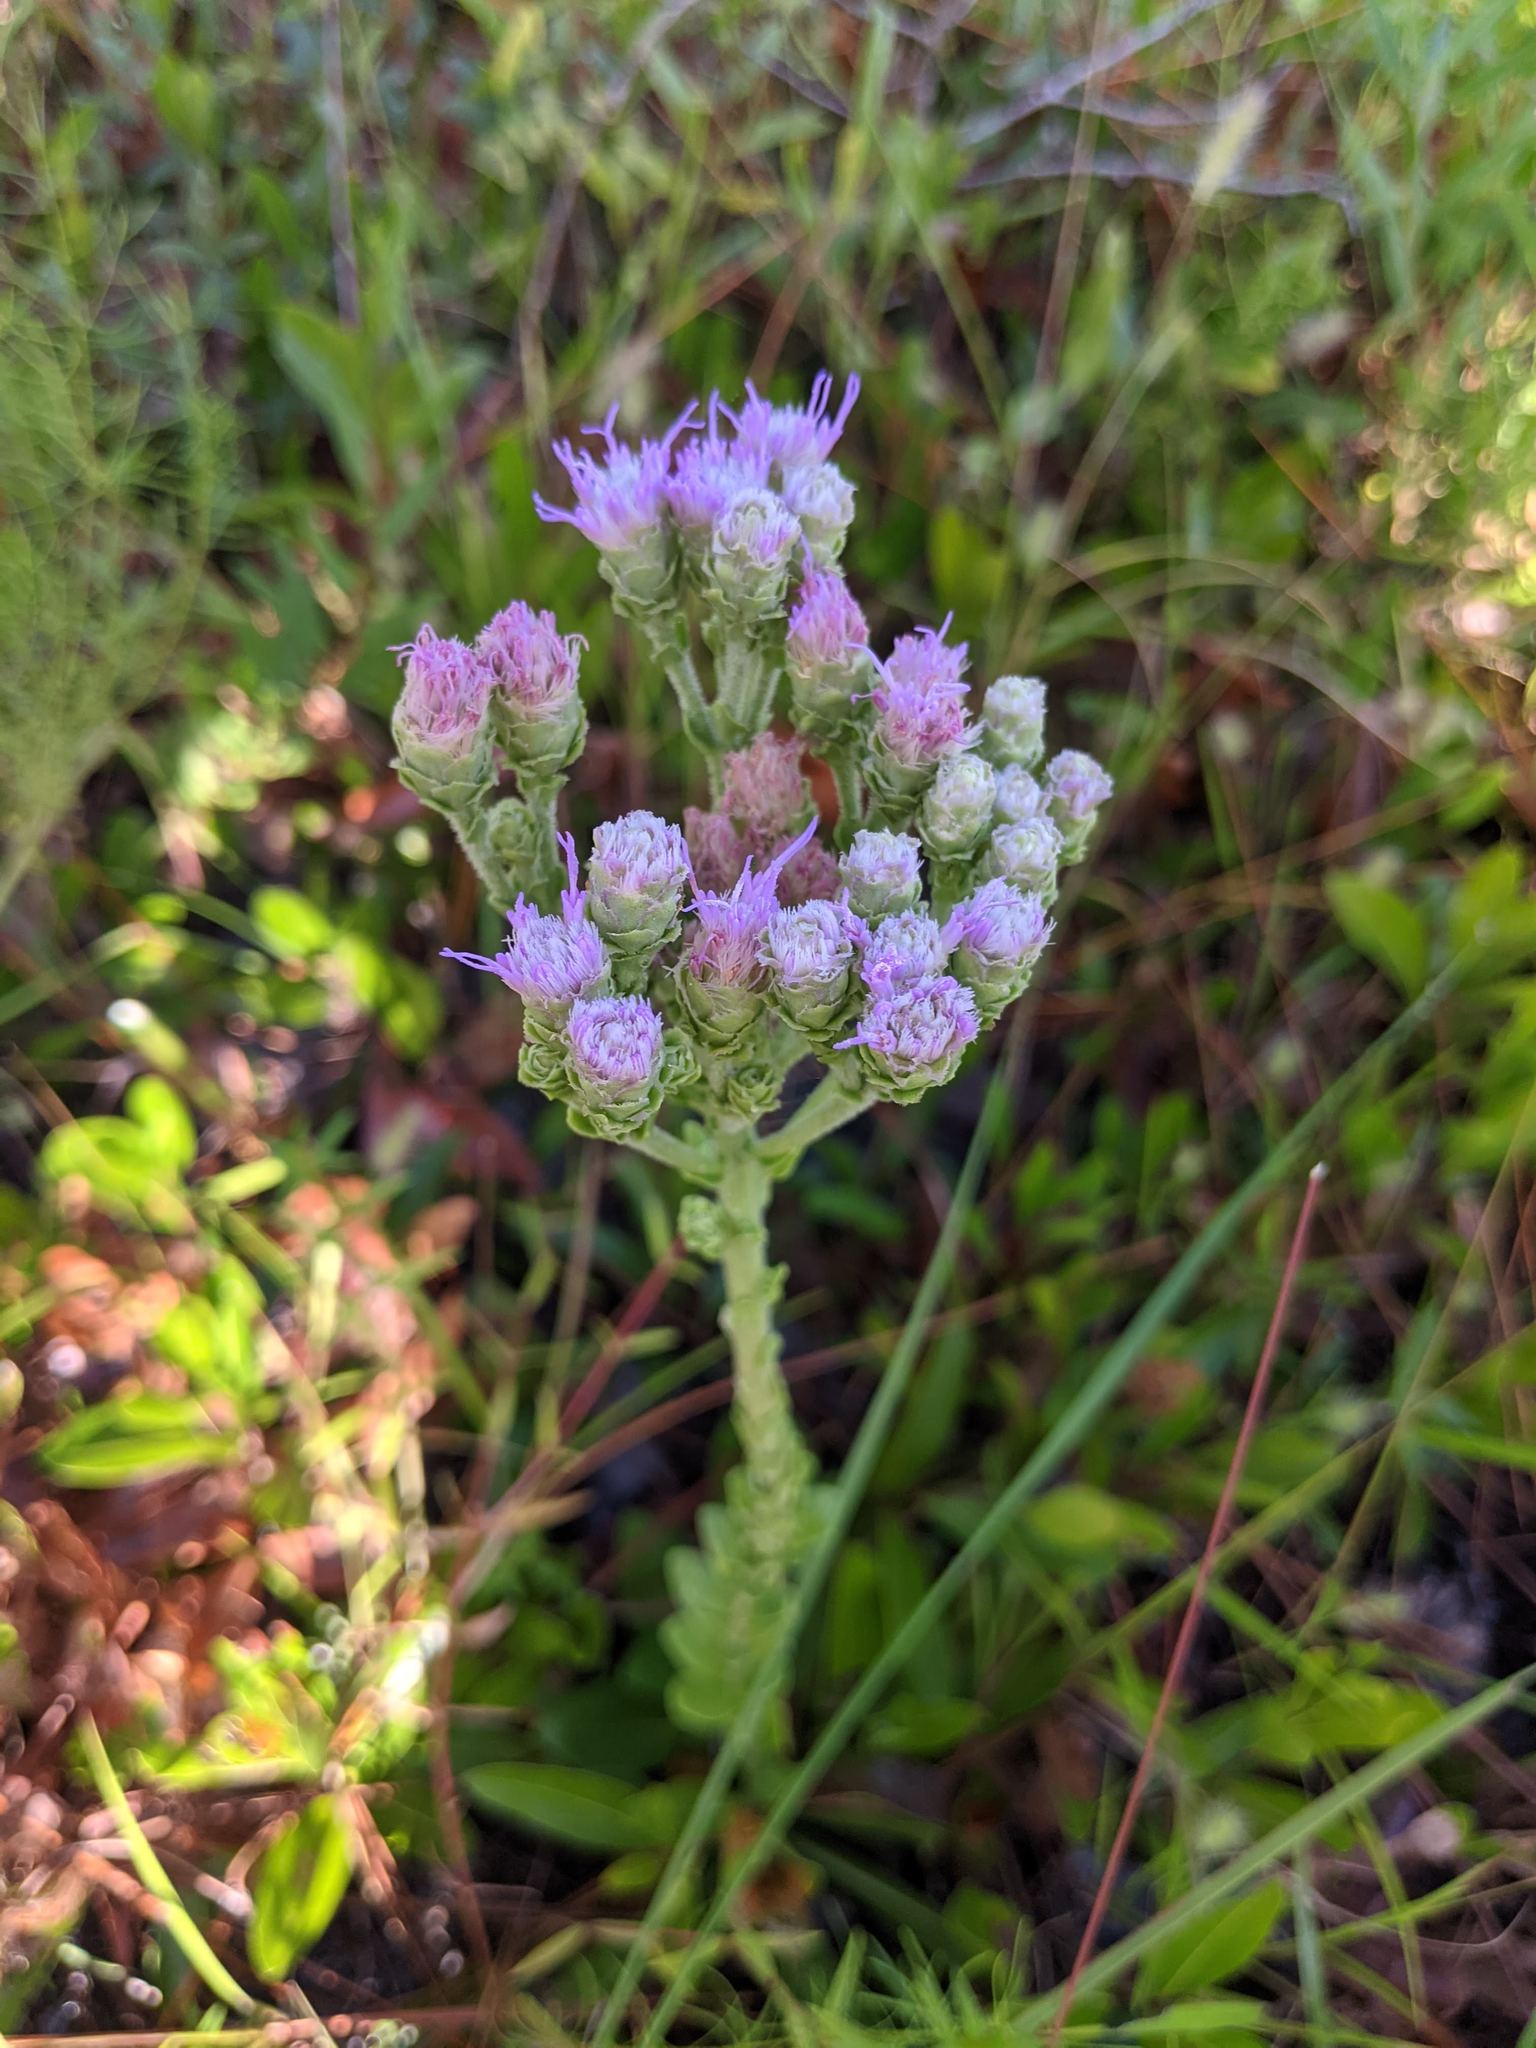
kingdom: Plantae
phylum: Tracheophyta
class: Magnoliopsida
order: Asterales
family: Asteraceae
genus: Carphephorus
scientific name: Carphephorus corymbosus
